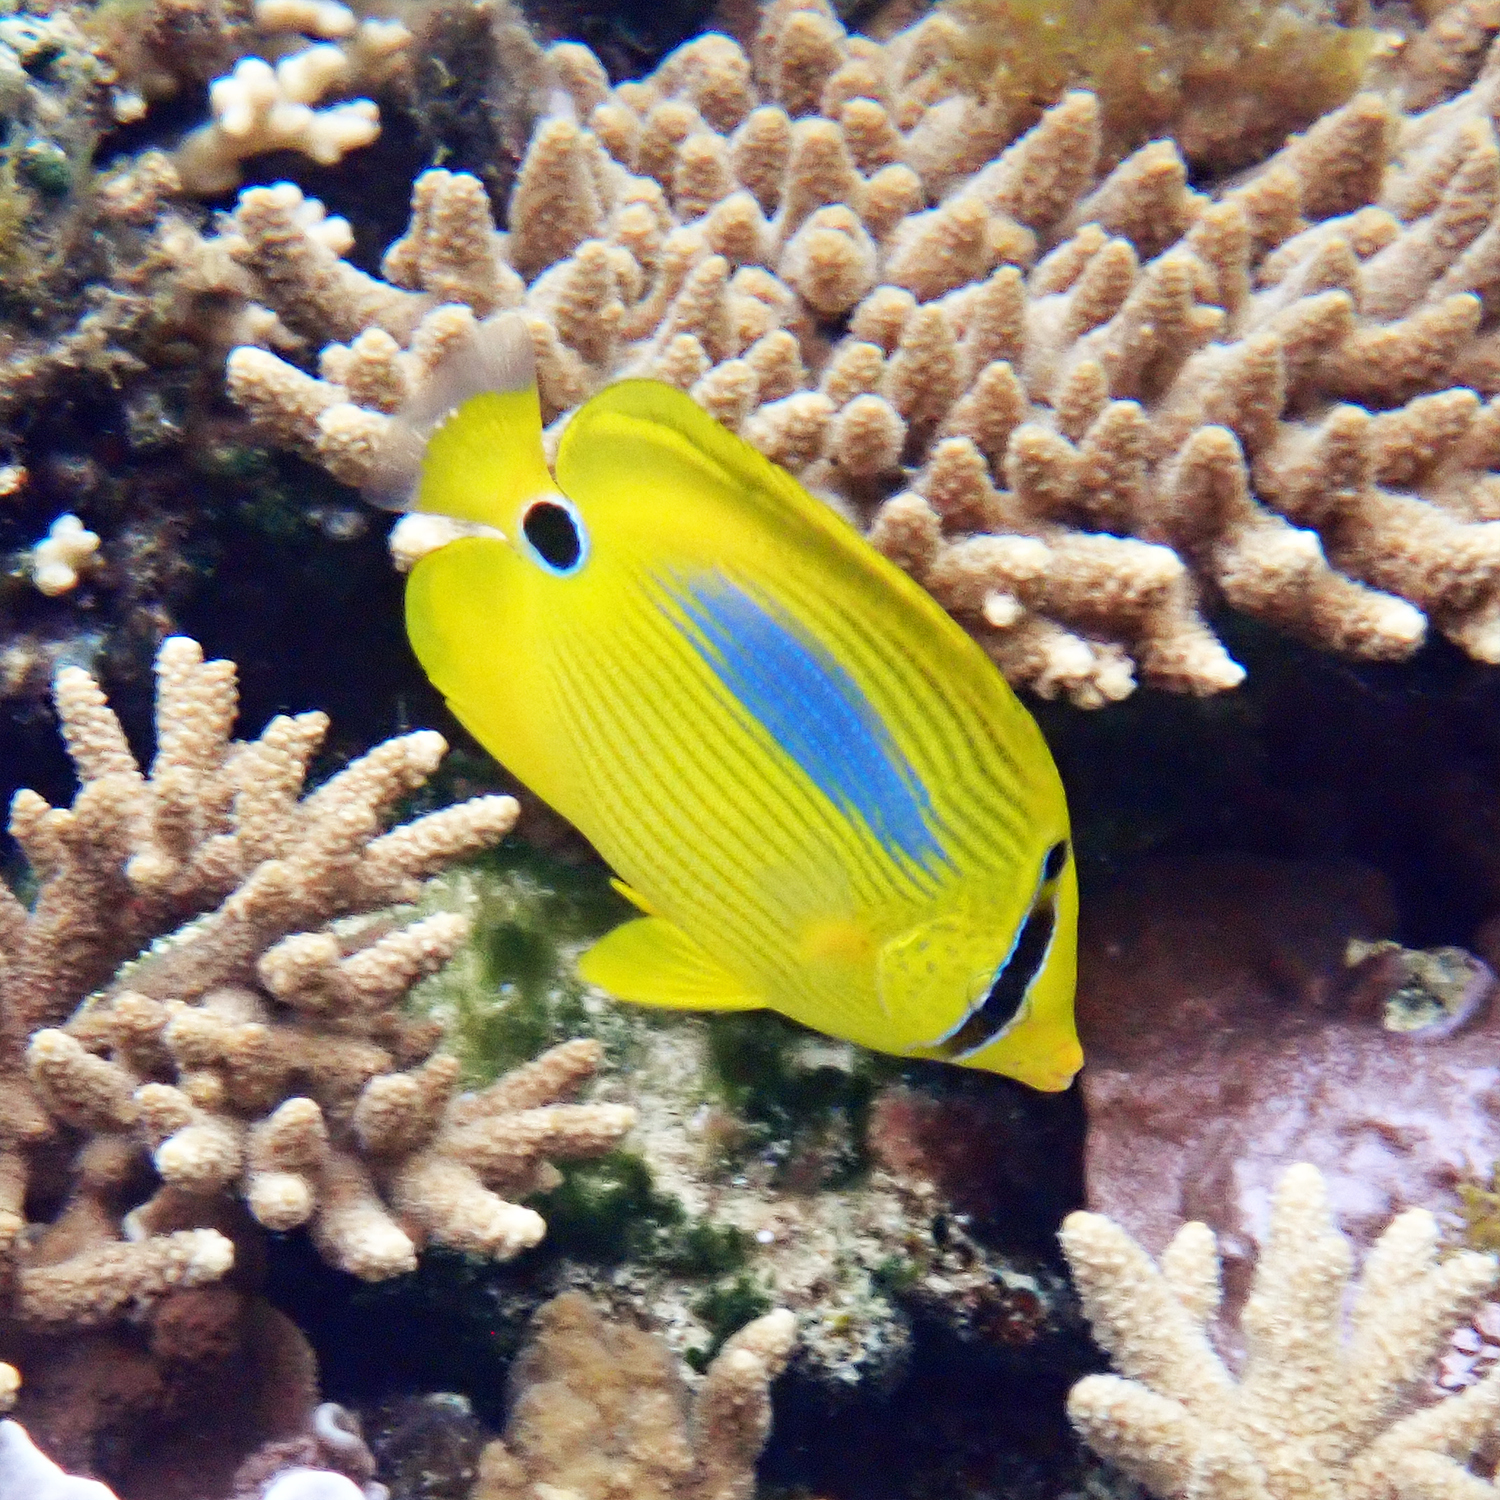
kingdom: Animalia
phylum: Chordata
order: Perciformes
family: Chaetodontidae
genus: Chaetodon
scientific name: Chaetodon plebeius
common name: Bluespot butterflyfish
